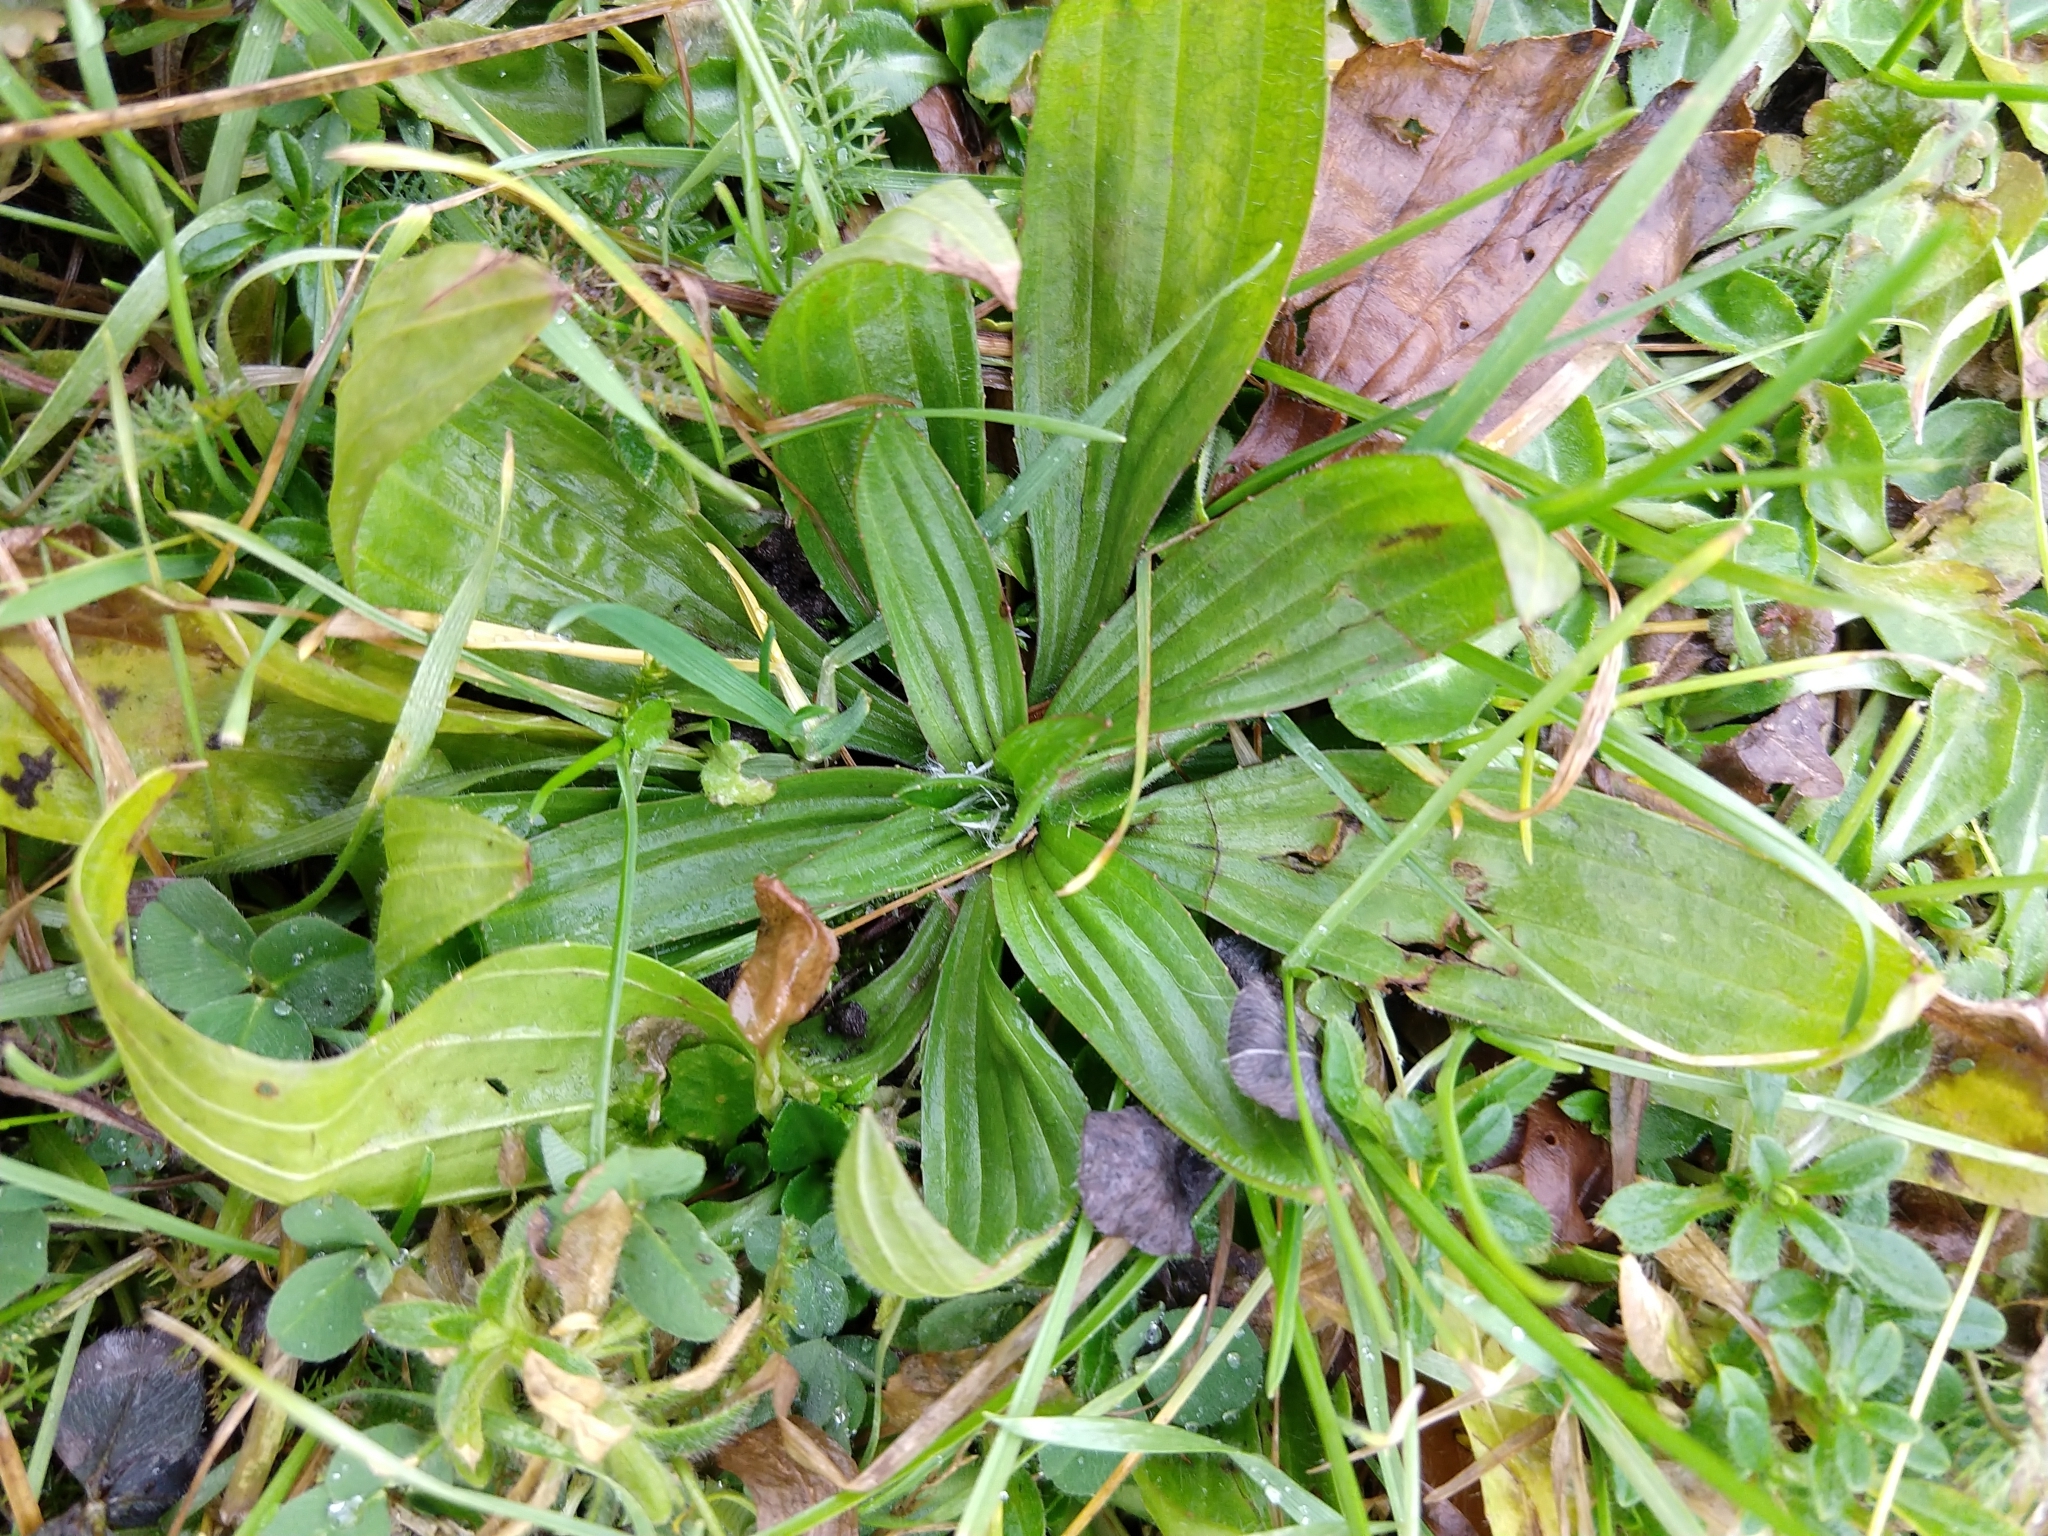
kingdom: Plantae
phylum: Tracheophyta
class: Magnoliopsida
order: Lamiales
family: Plantaginaceae
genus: Plantago
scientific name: Plantago lanceolata
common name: Ribwort plantain
